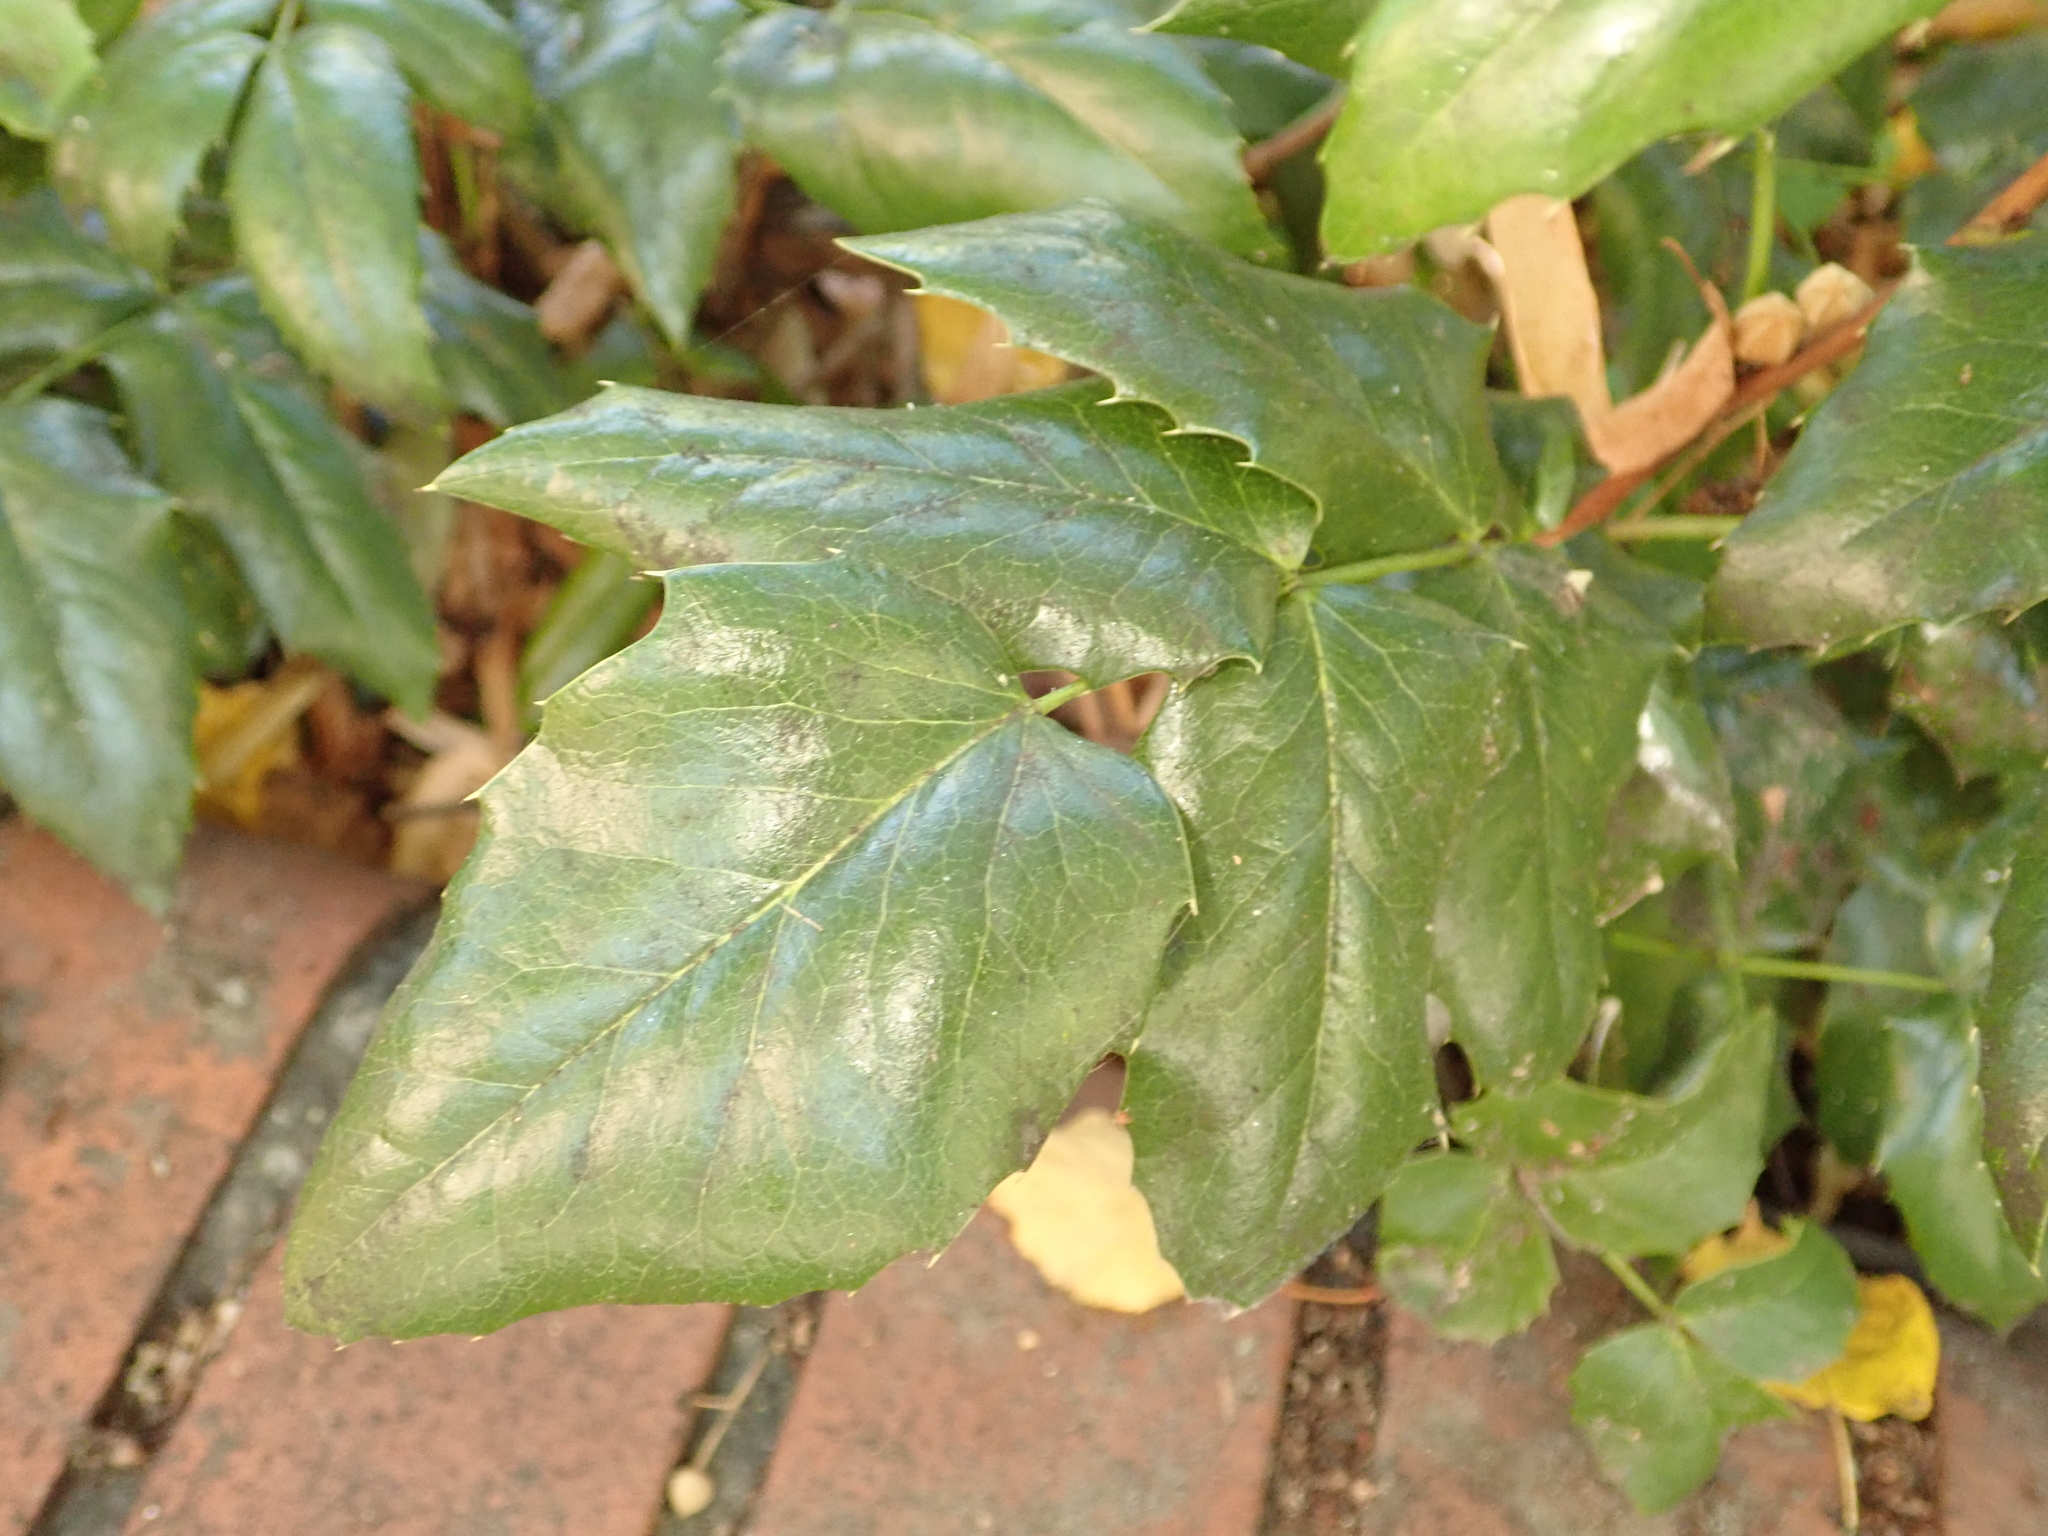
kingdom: Plantae
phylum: Tracheophyta
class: Magnoliopsida
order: Ranunculales
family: Berberidaceae
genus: Mahonia
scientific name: Mahonia aquifolium
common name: Oregon-grape
